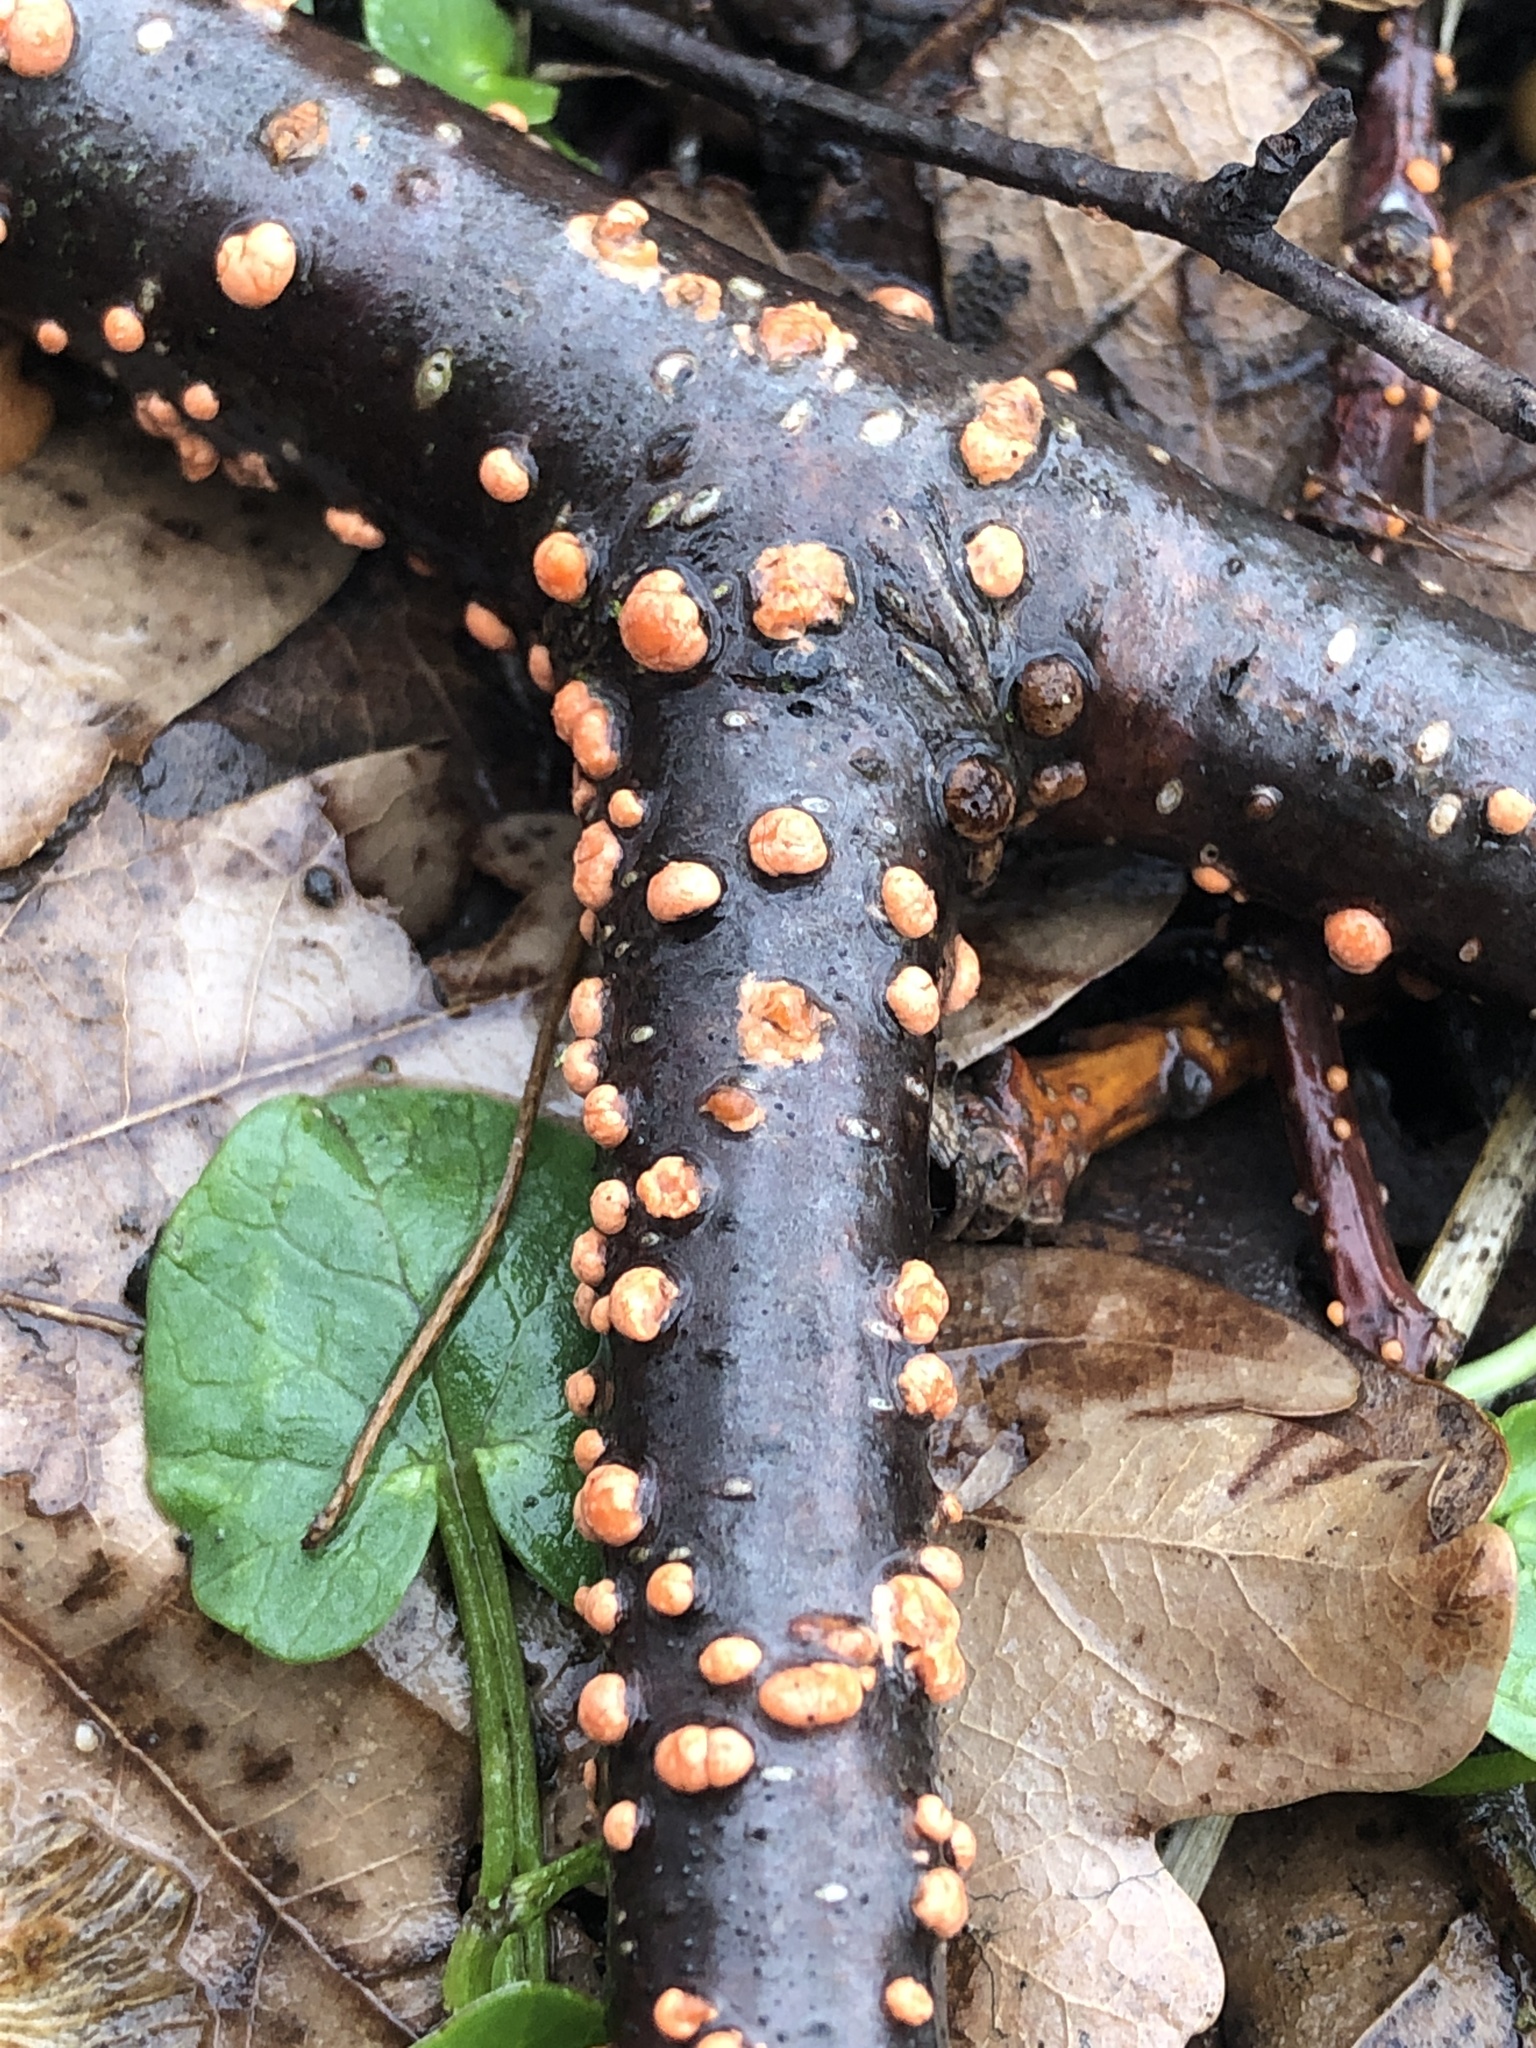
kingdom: Fungi
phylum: Ascomycota
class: Sordariomycetes
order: Hypocreales
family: Nectriaceae
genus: Nectria
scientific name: Nectria cinnabarina
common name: Coral spot
